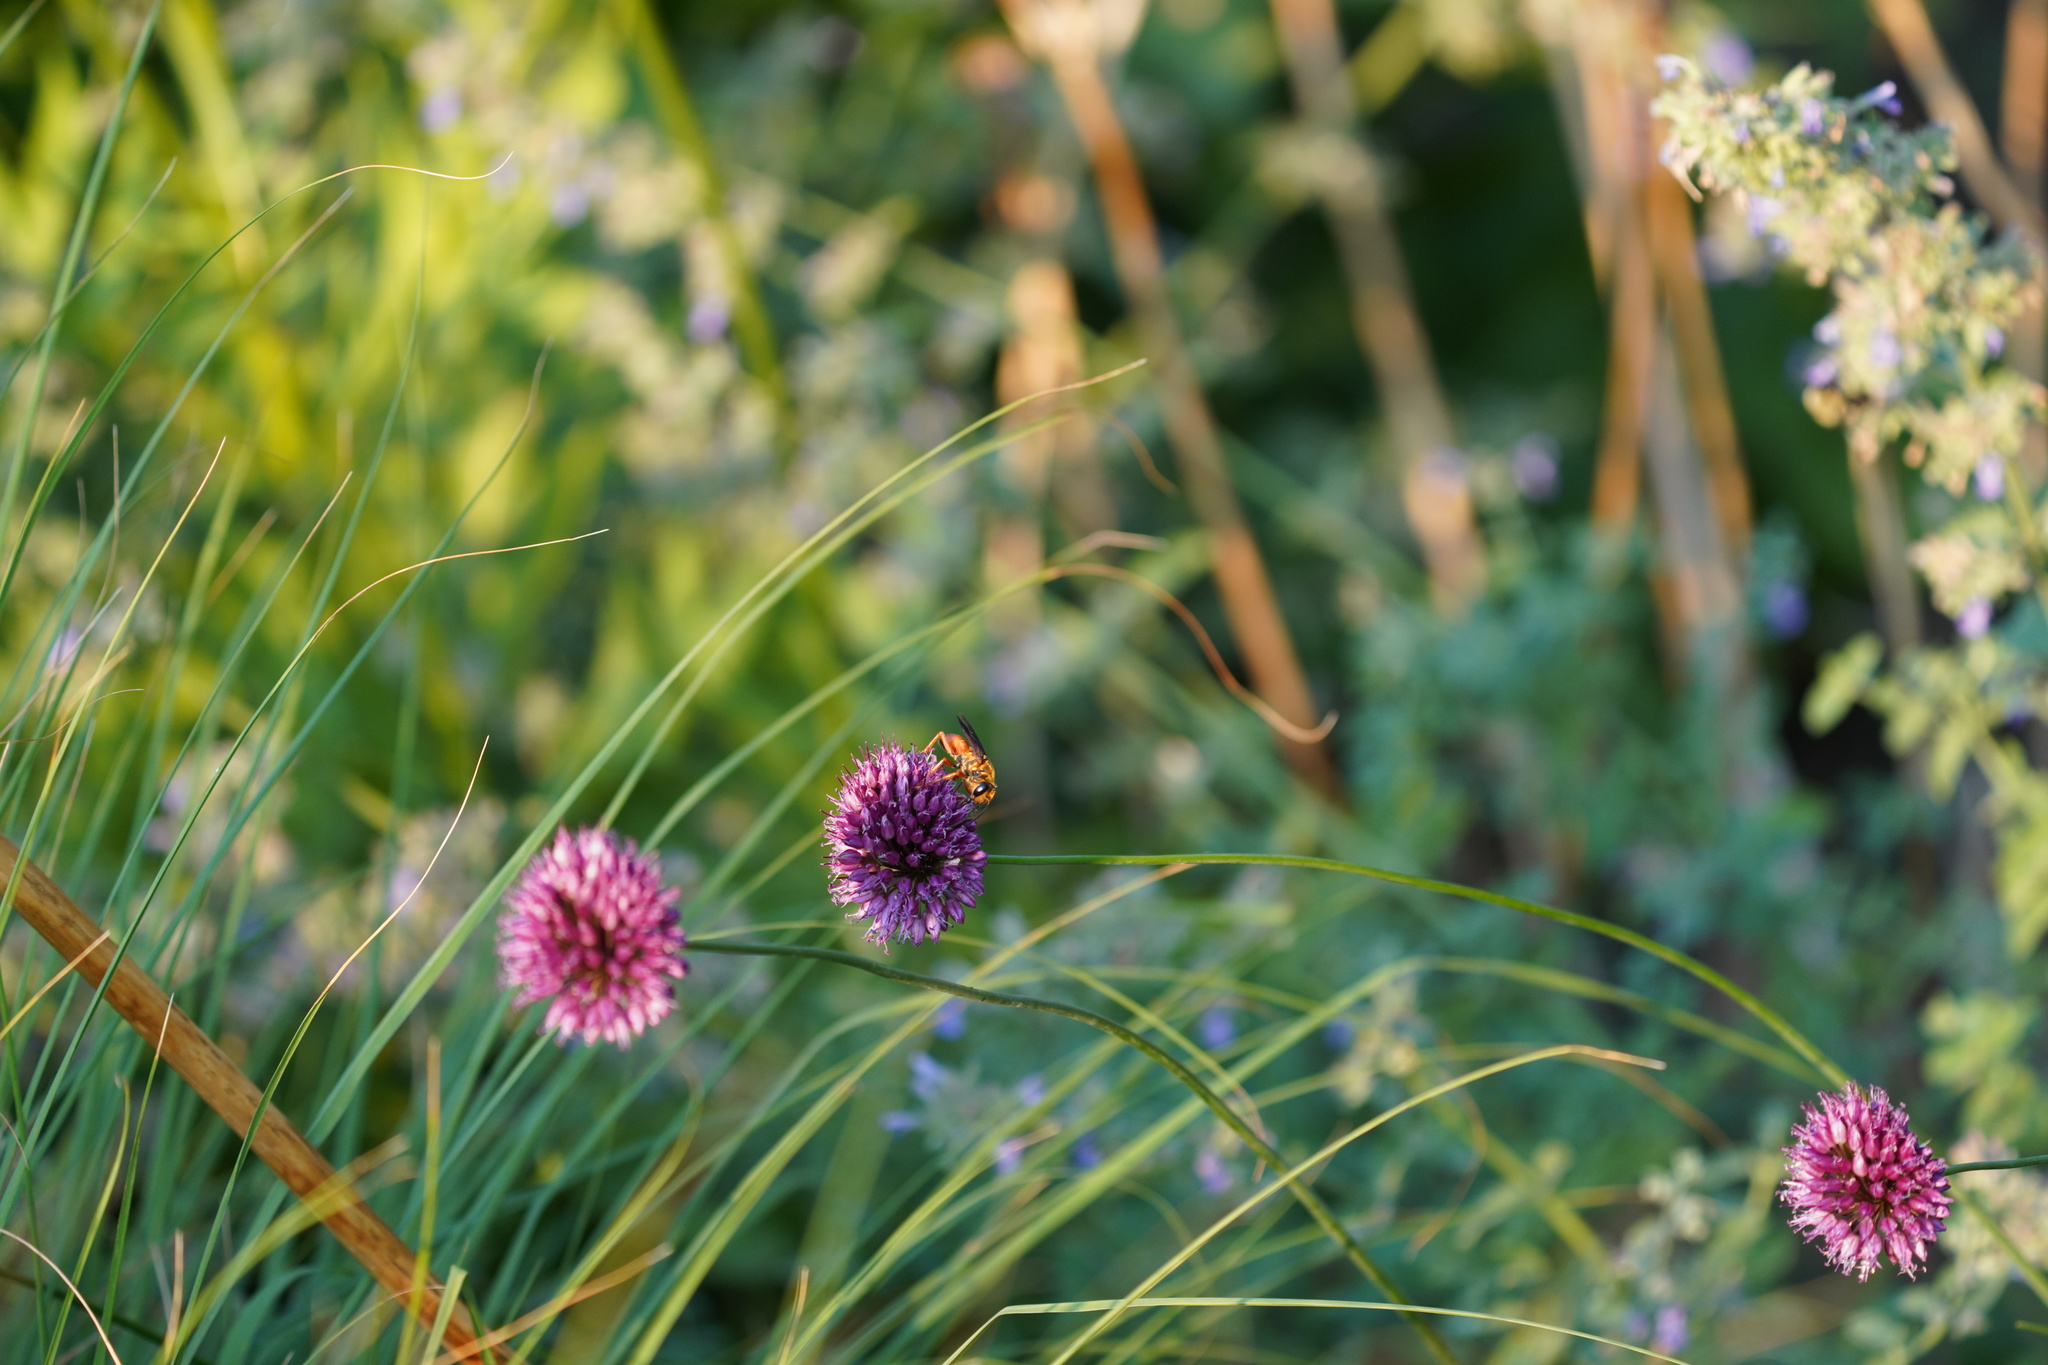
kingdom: Animalia
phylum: Arthropoda
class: Insecta
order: Hymenoptera
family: Sphecidae
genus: Sphex
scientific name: Sphex ichneumoneus
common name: Great golden digger wasp
